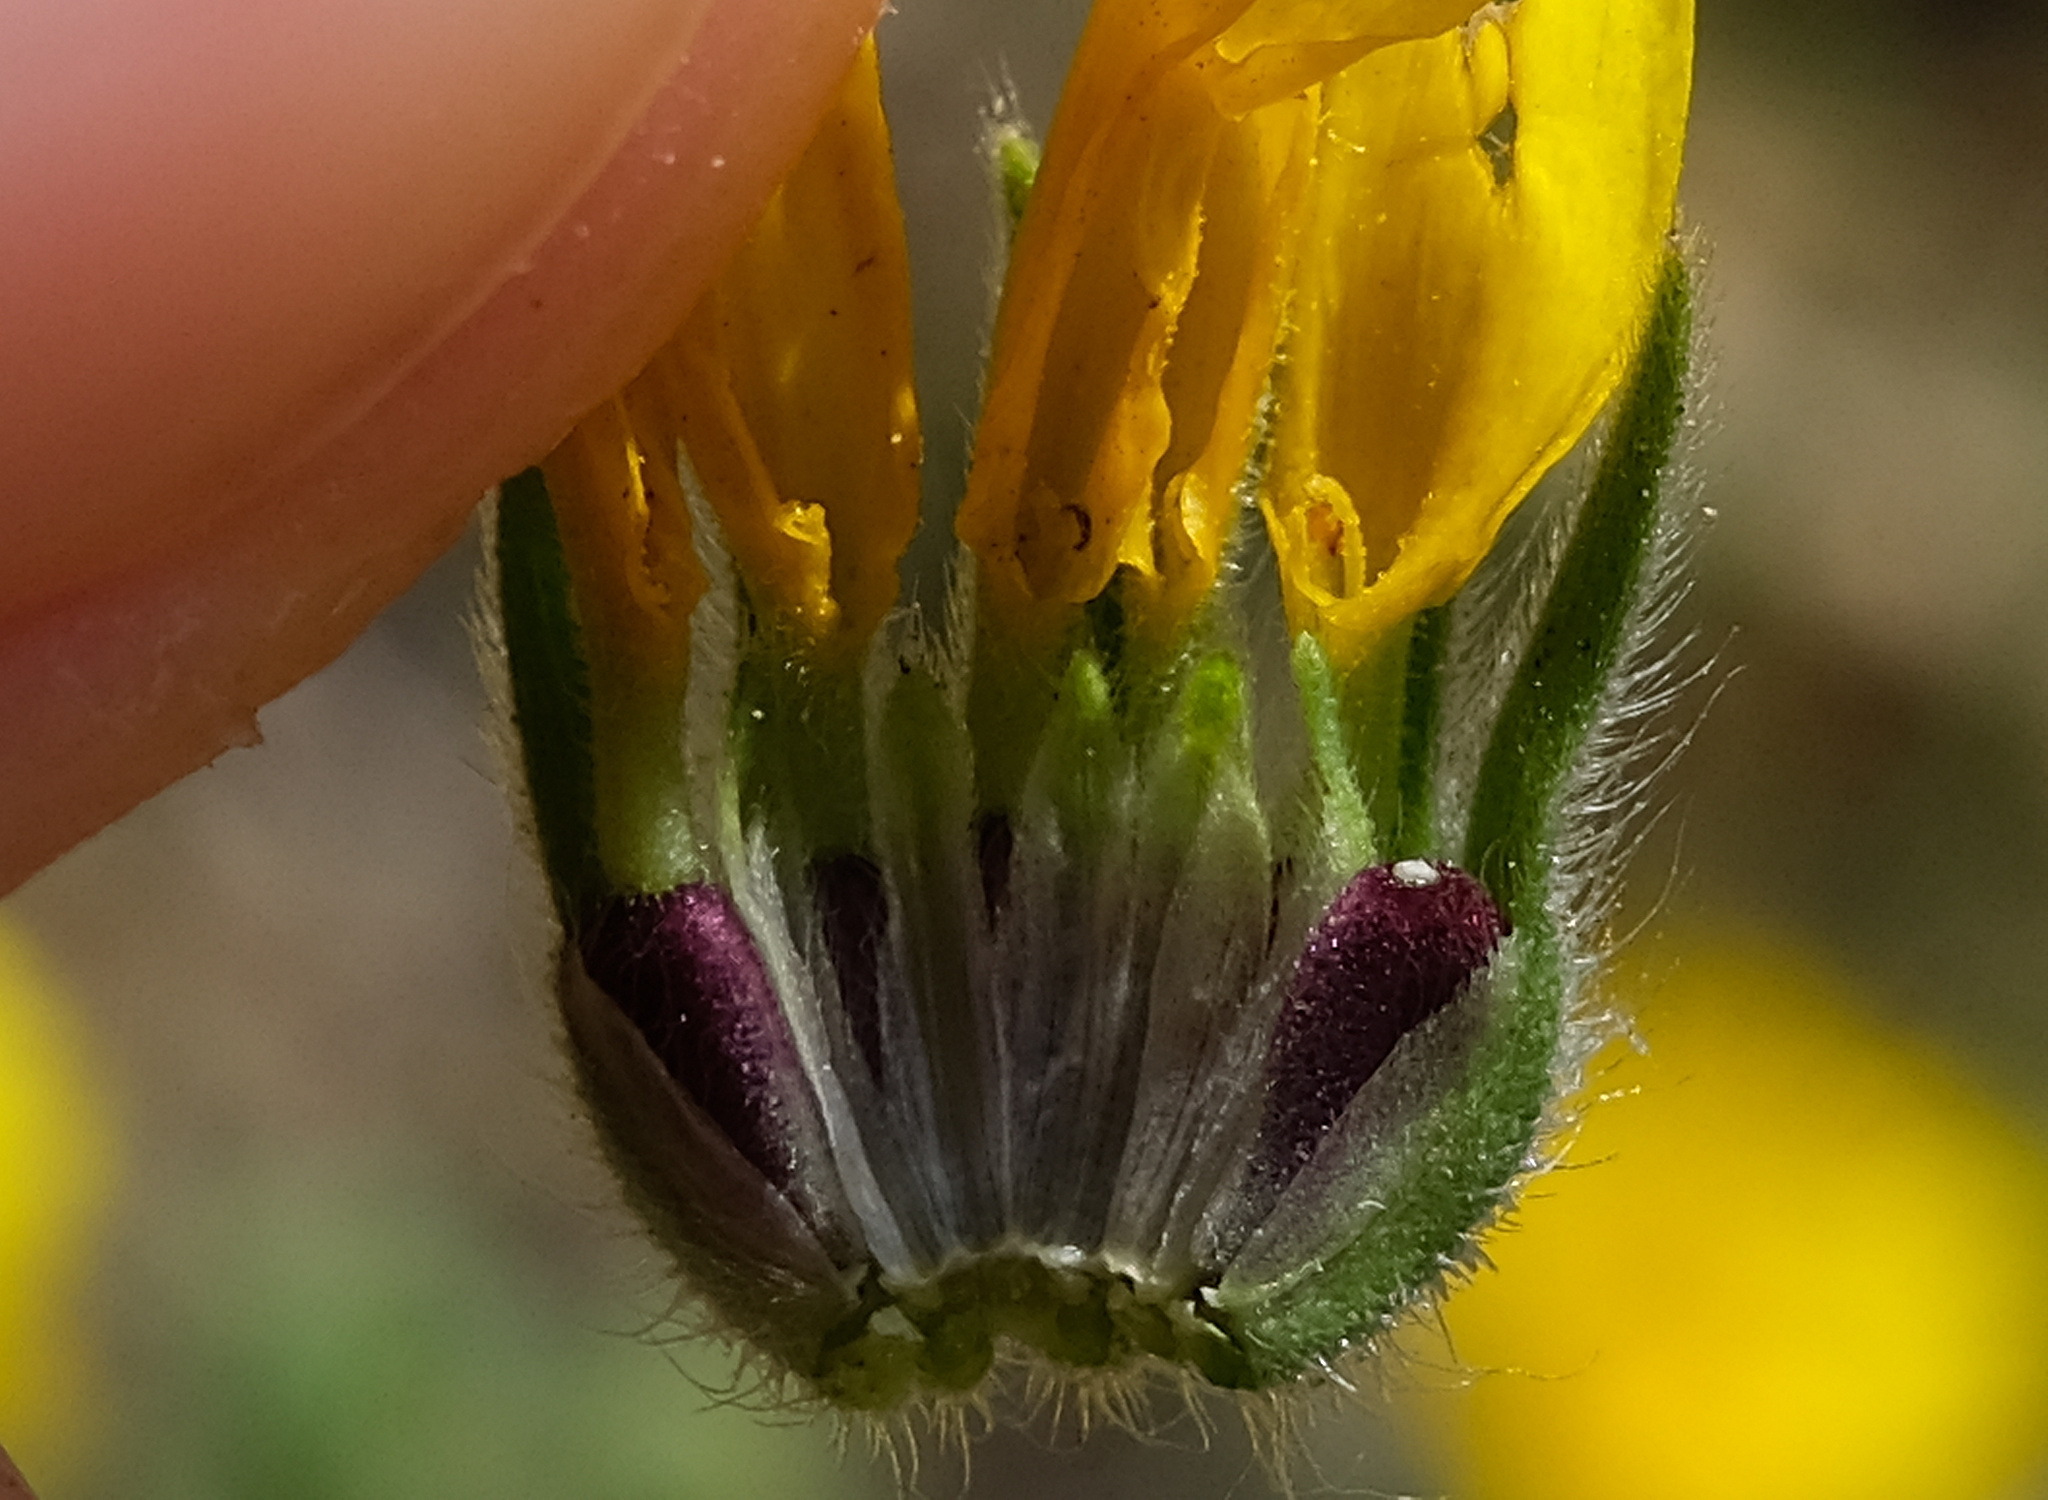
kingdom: Plantae
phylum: Tracheophyta
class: Magnoliopsida
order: Asterales
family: Asteraceae
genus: Madia
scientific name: Madia elegans
